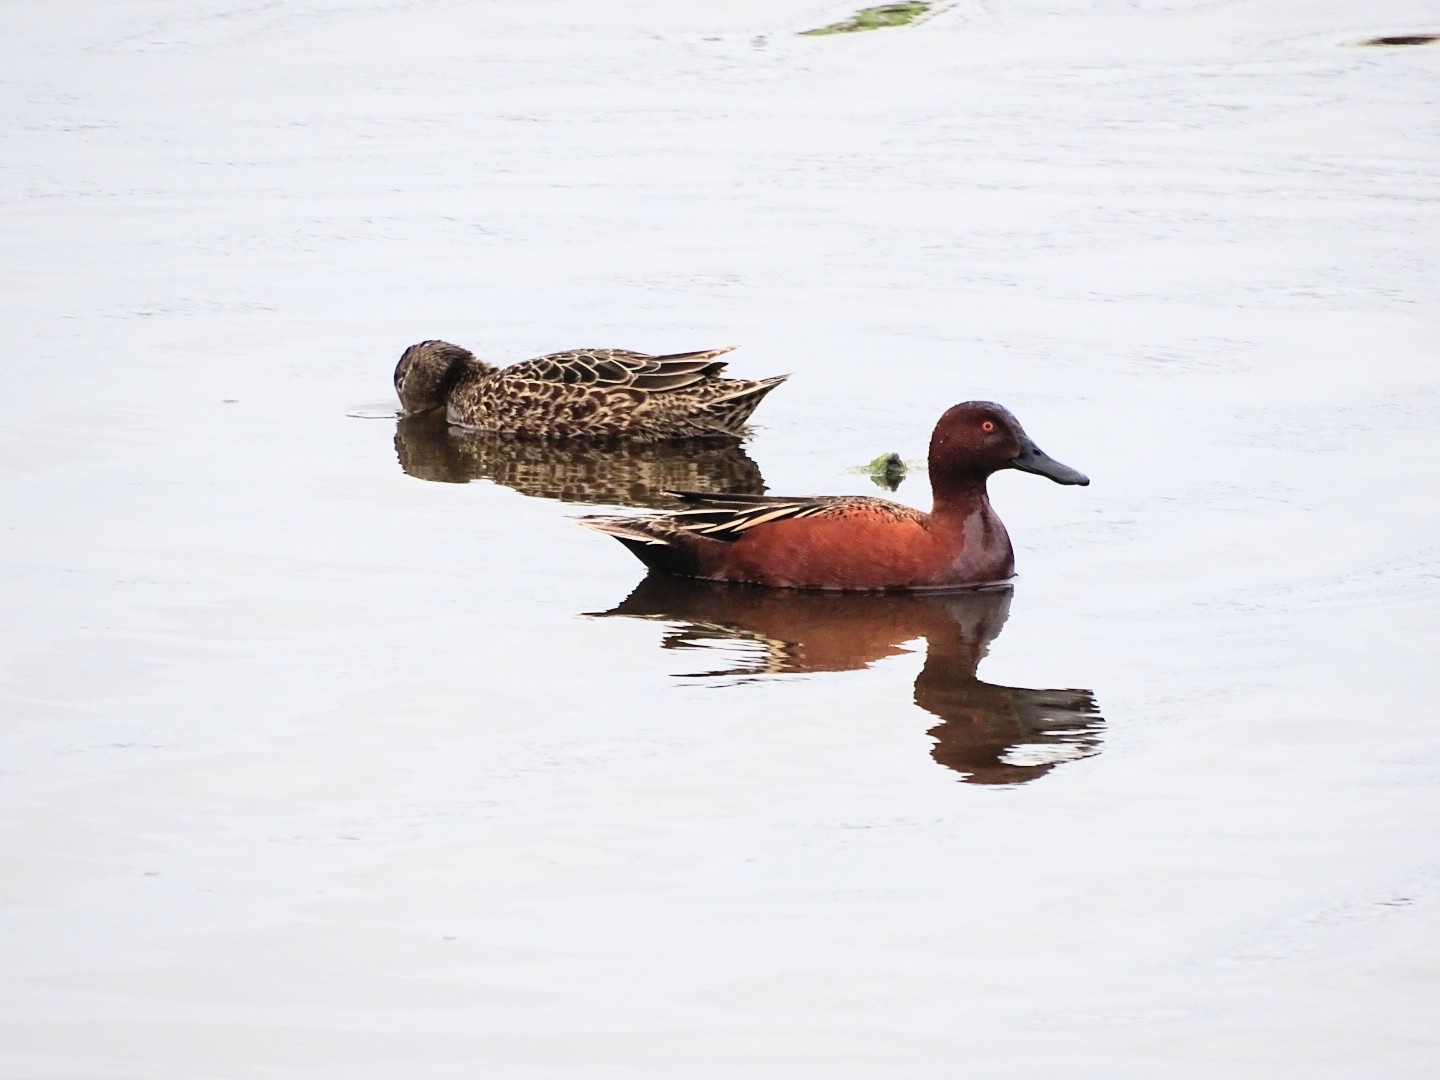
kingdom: Animalia
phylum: Chordata
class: Aves
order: Anseriformes
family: Anatidae
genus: Spatula
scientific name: Spatula cyanoptera
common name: Cinnamon teal
